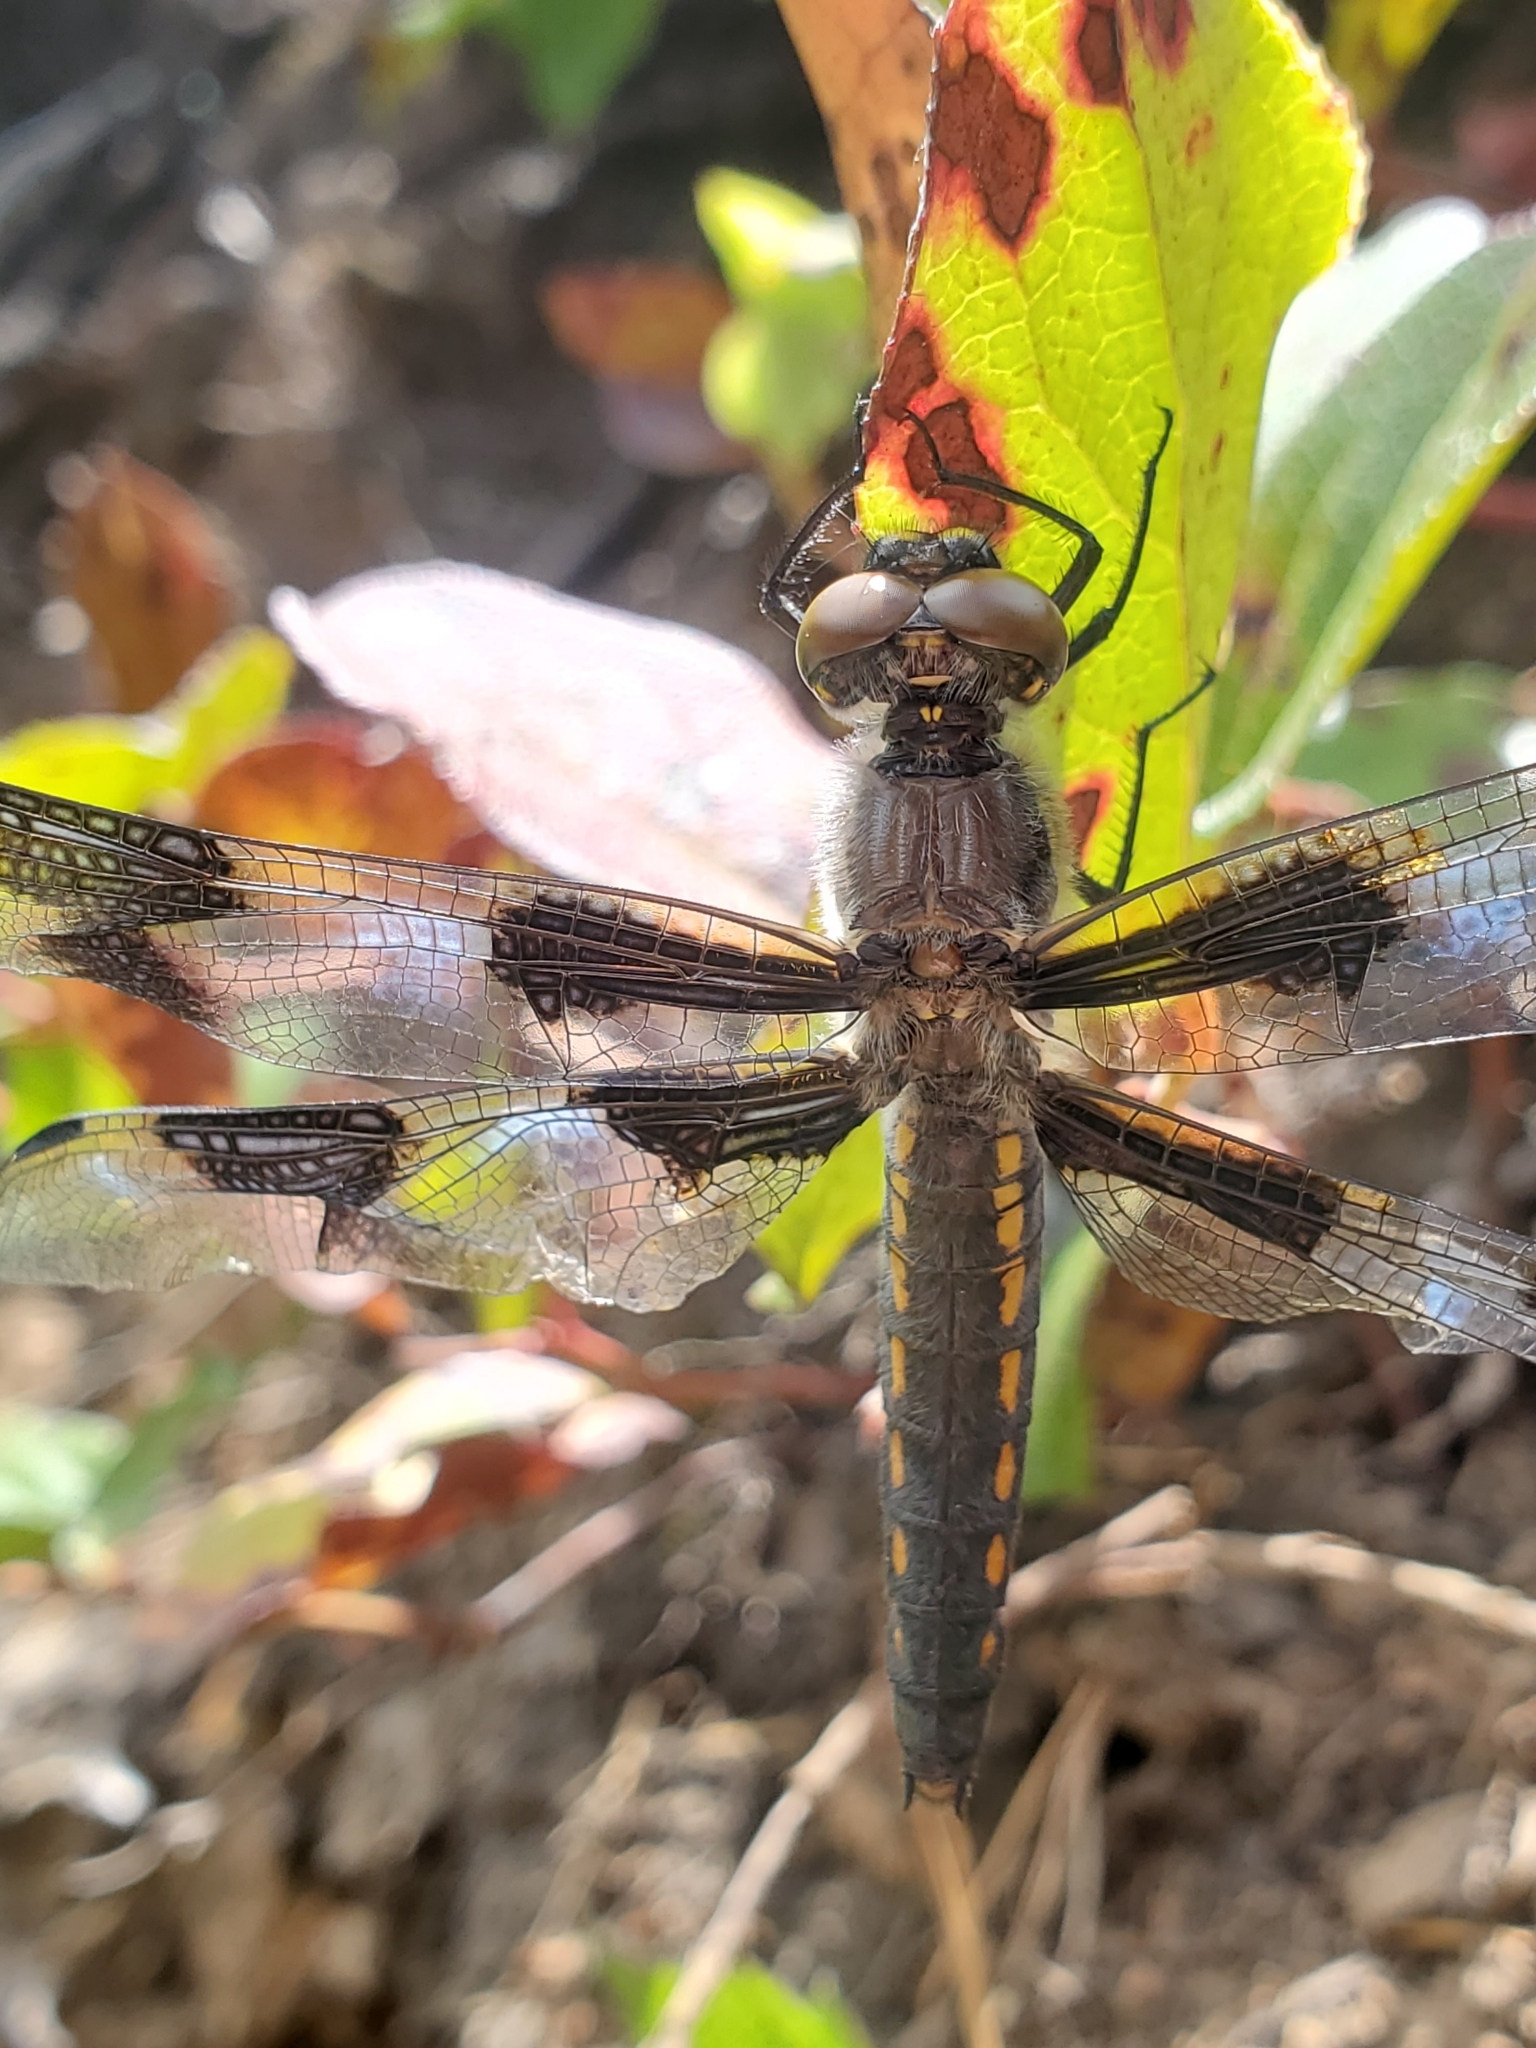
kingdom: Animalia
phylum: Arthropoda
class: Insecta
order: Odonata
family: Libellulidae
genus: Libellula
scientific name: Libellula forensis
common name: Eight-spotted skimmer
